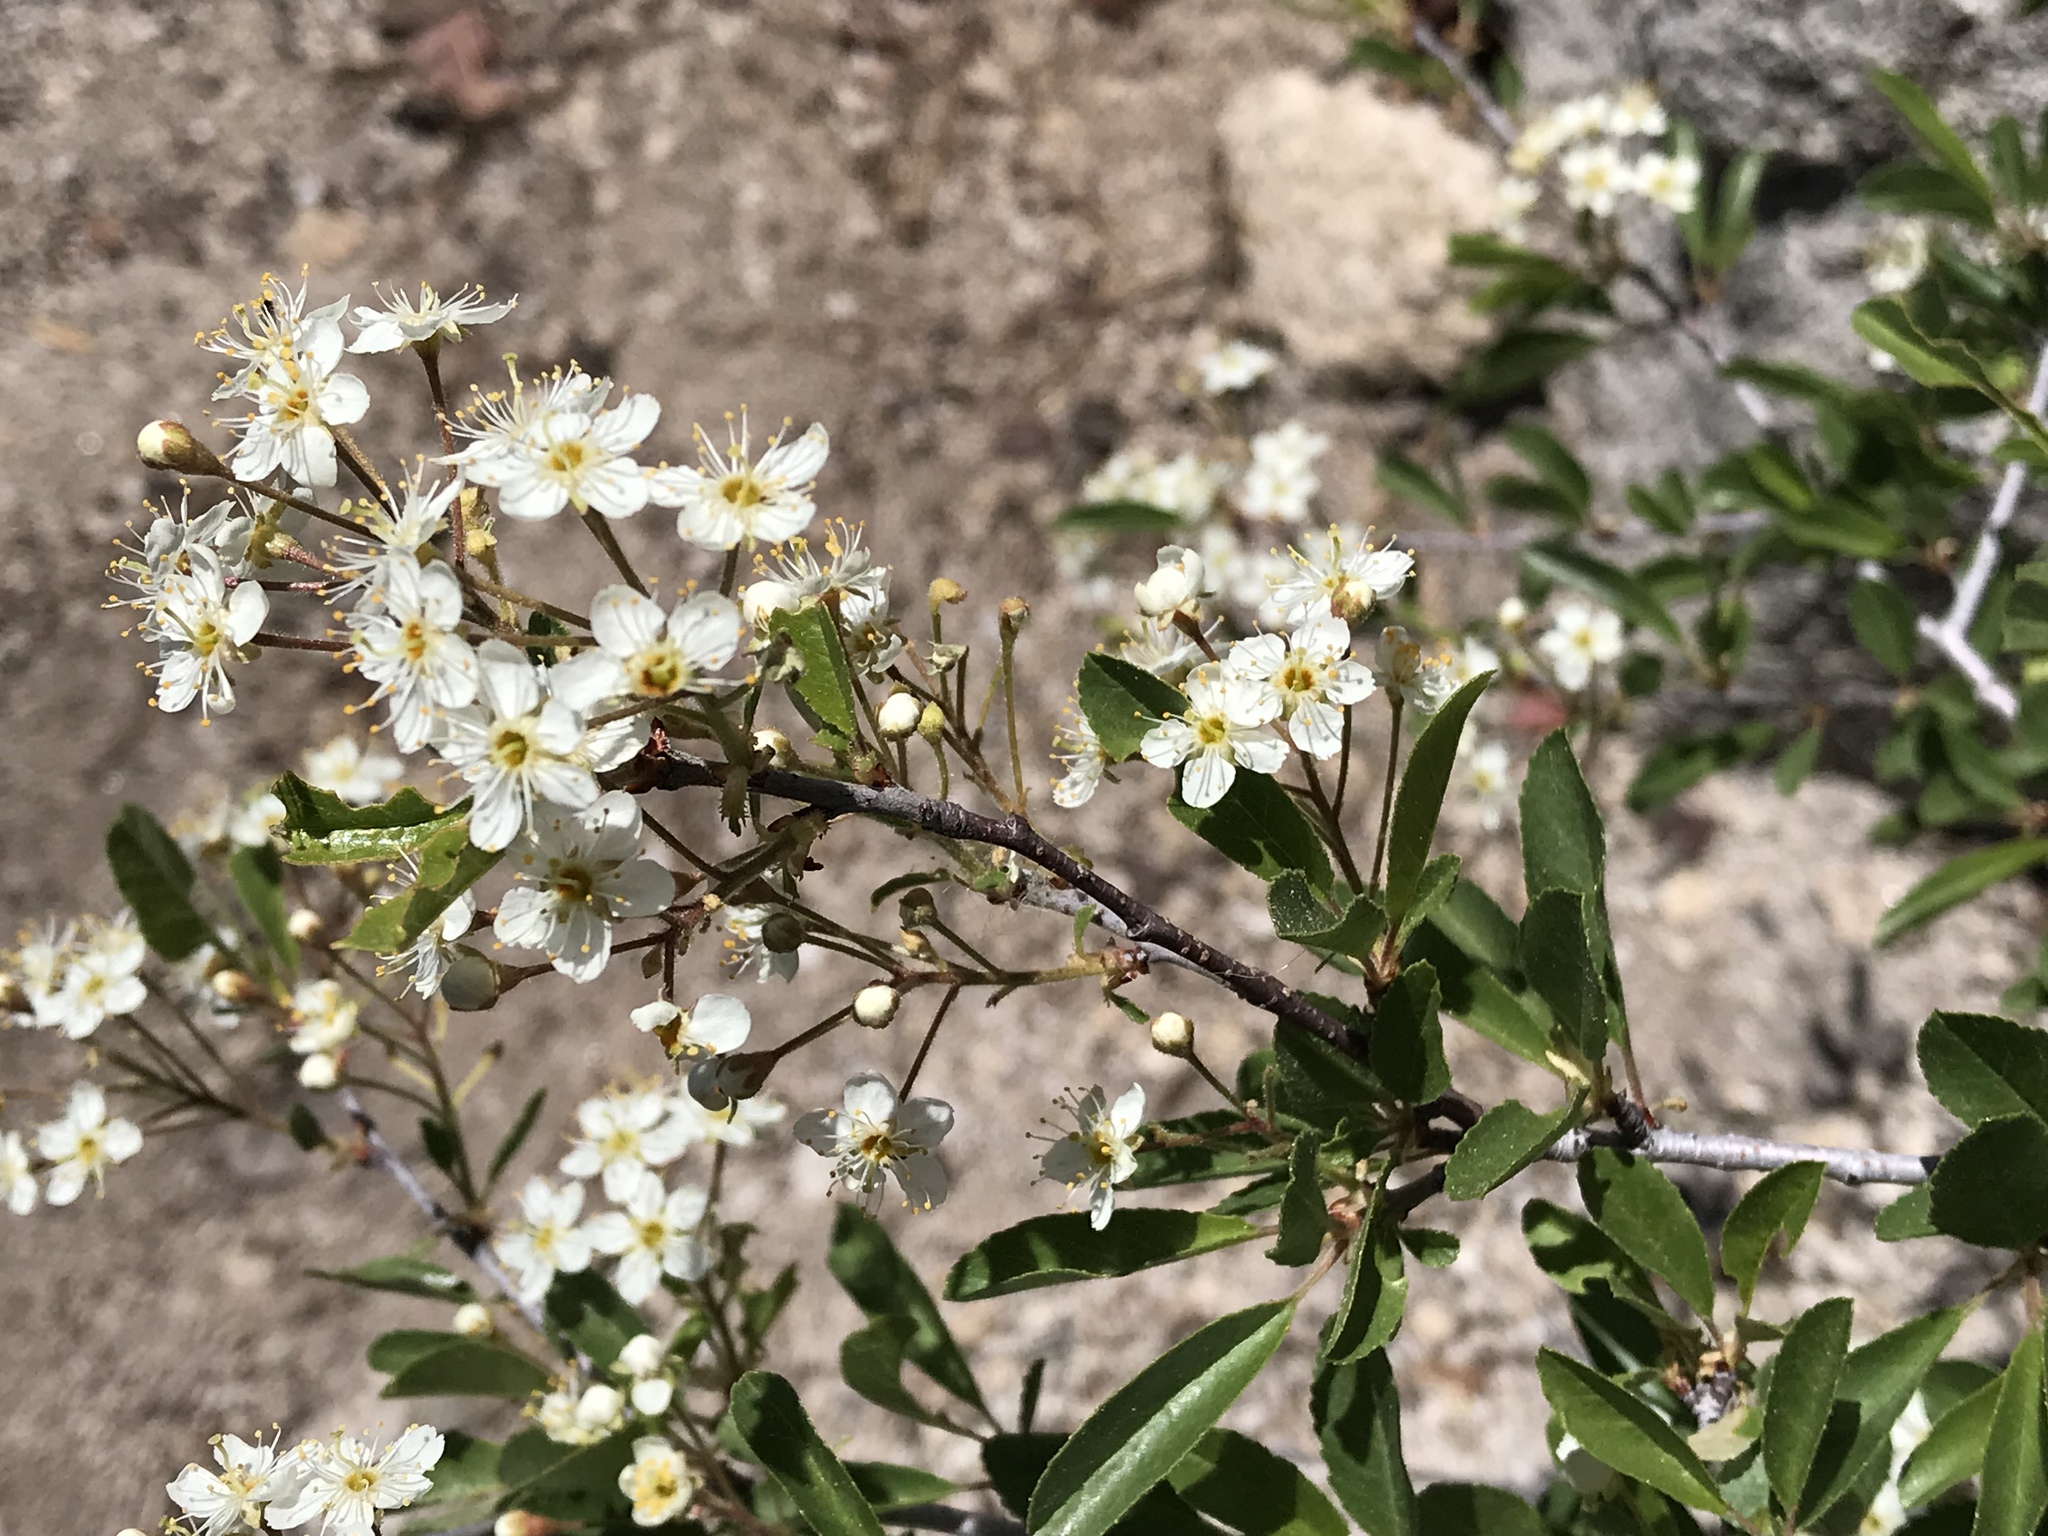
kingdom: Plantae
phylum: Tracheophyta
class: Magnoliopsida
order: Rosales
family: Rosaceae
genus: Prunus
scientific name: Prunus emarginata
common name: Bitter cherry
